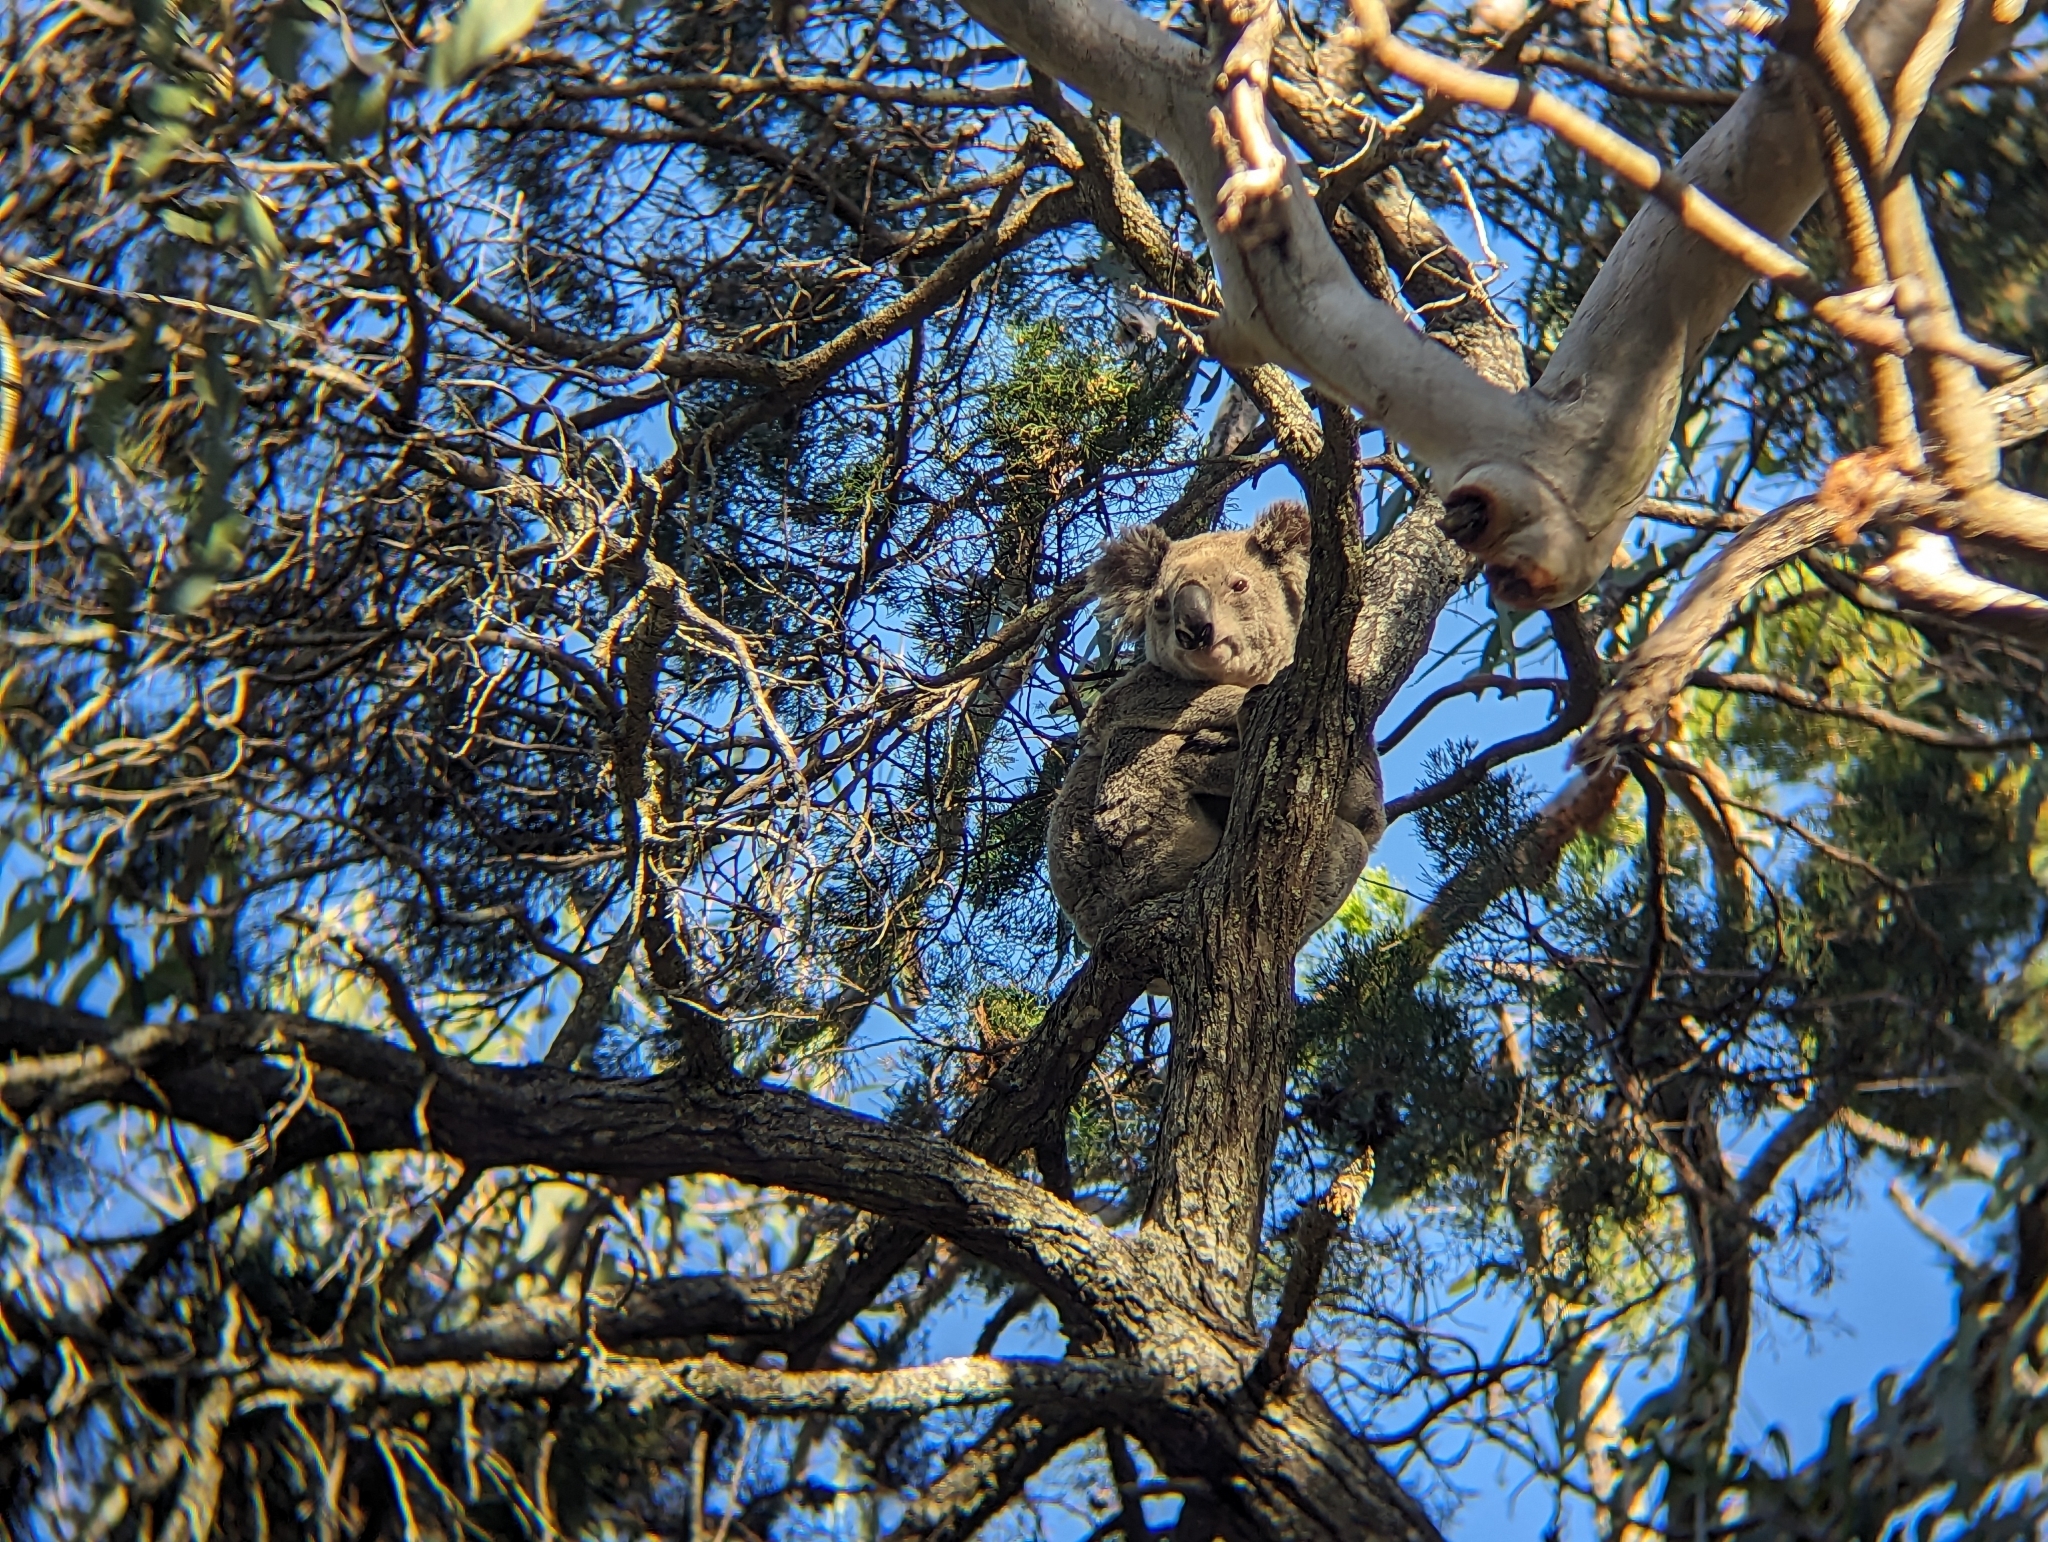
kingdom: Animalia
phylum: Chordata
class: Mammalia
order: Diprotodontia
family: Phascolarctidae
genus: Phascolarctos
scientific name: Phascolarctos cinereus
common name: Koala
